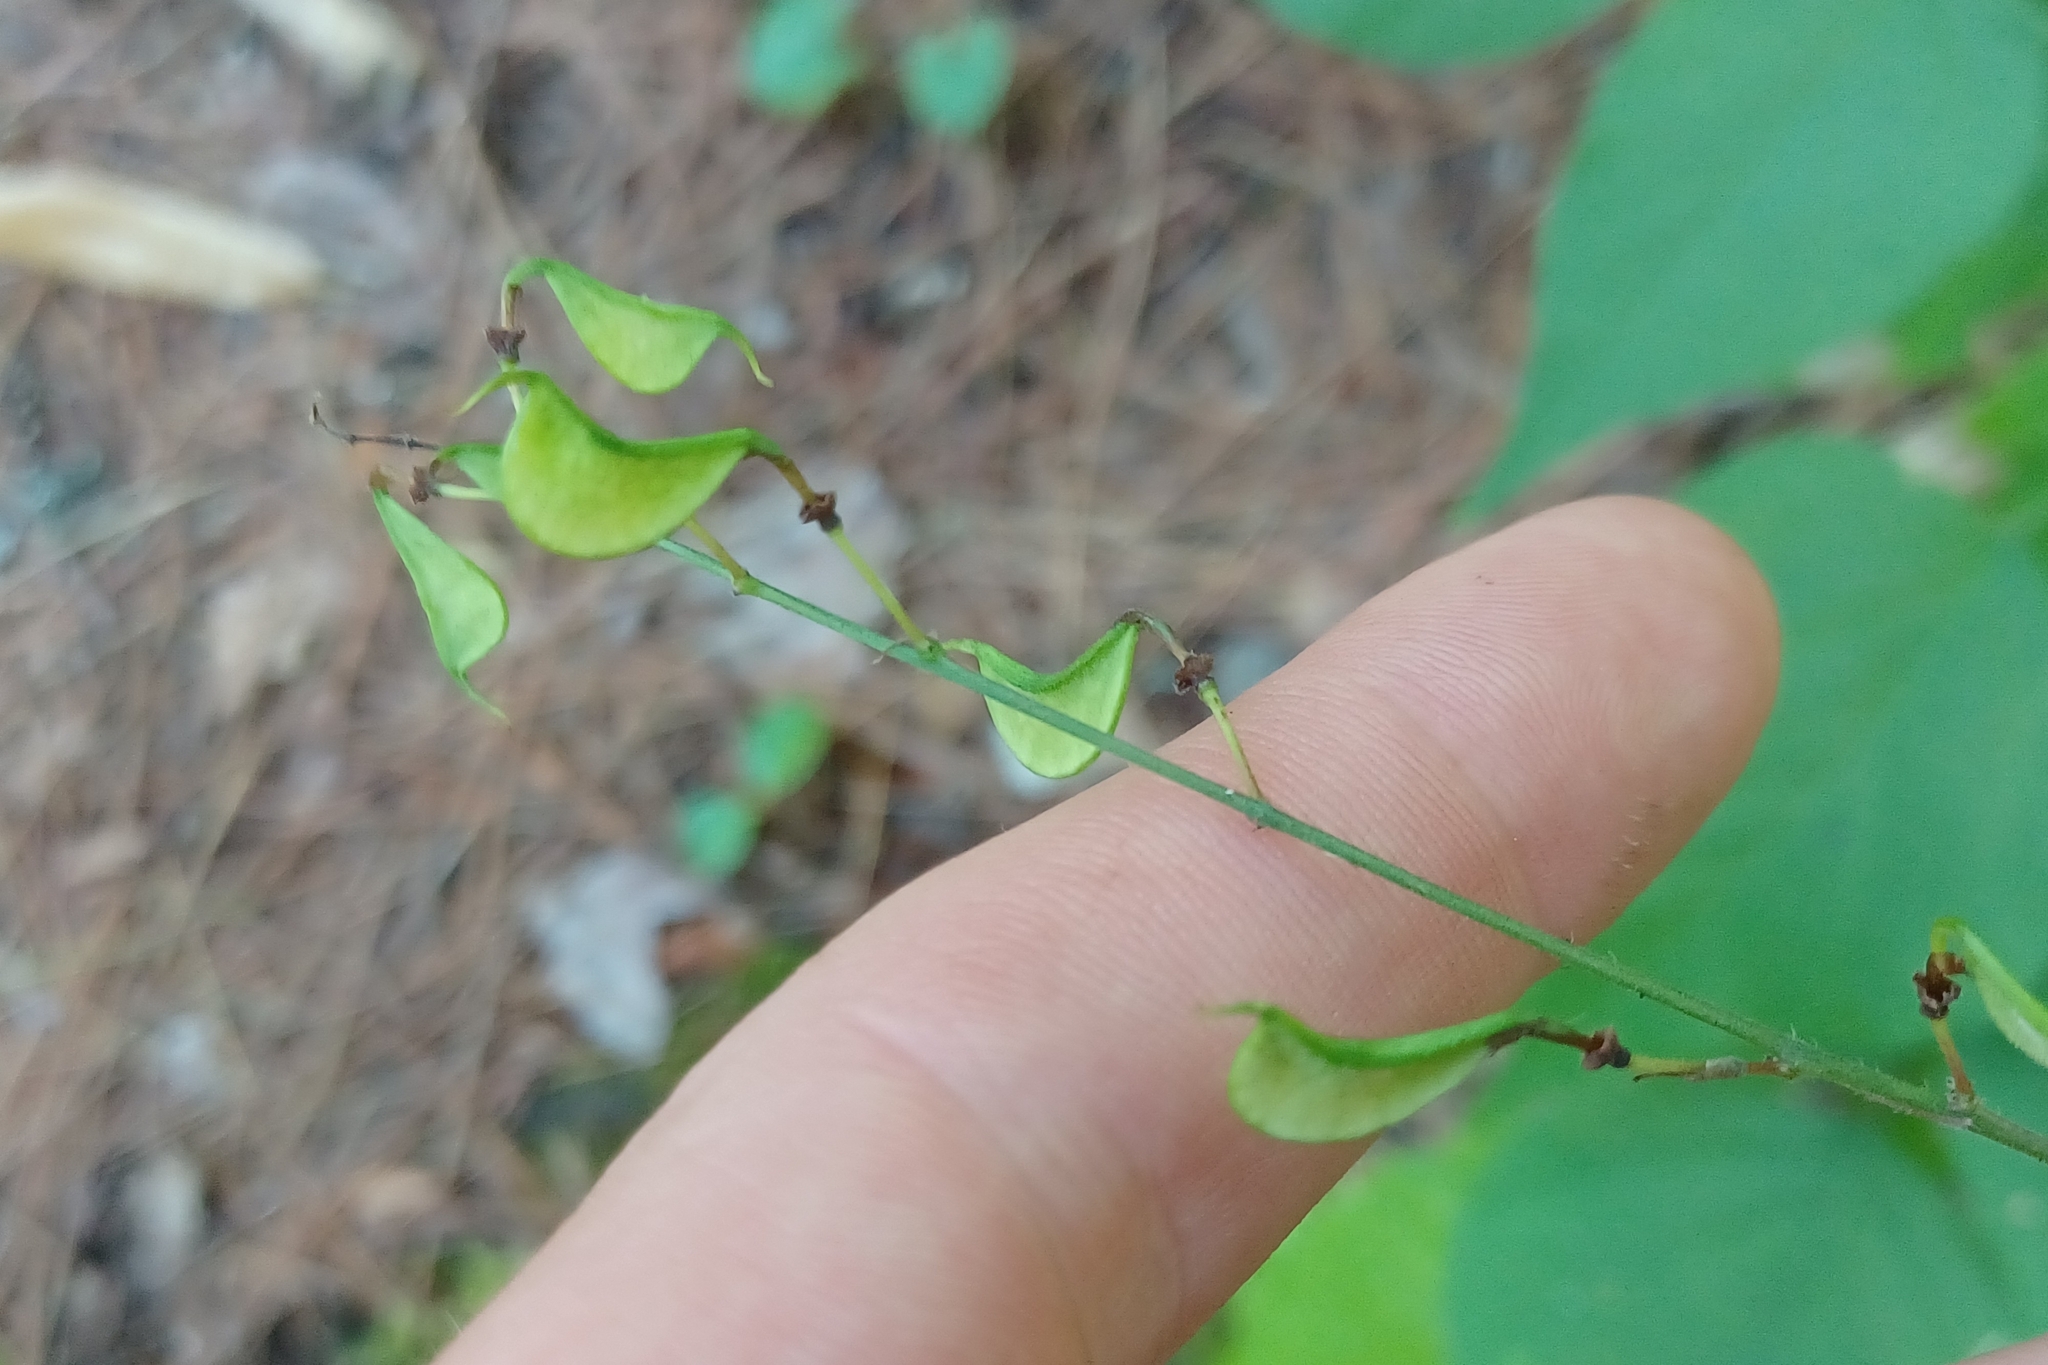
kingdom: Plantae
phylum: Tracheophyta
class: Magnoliopsida
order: Fabales
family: Fabaceae
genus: Hylodesmum
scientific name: Hylodesmum glutinosum
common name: Clustered-leaved tick-trefoil
